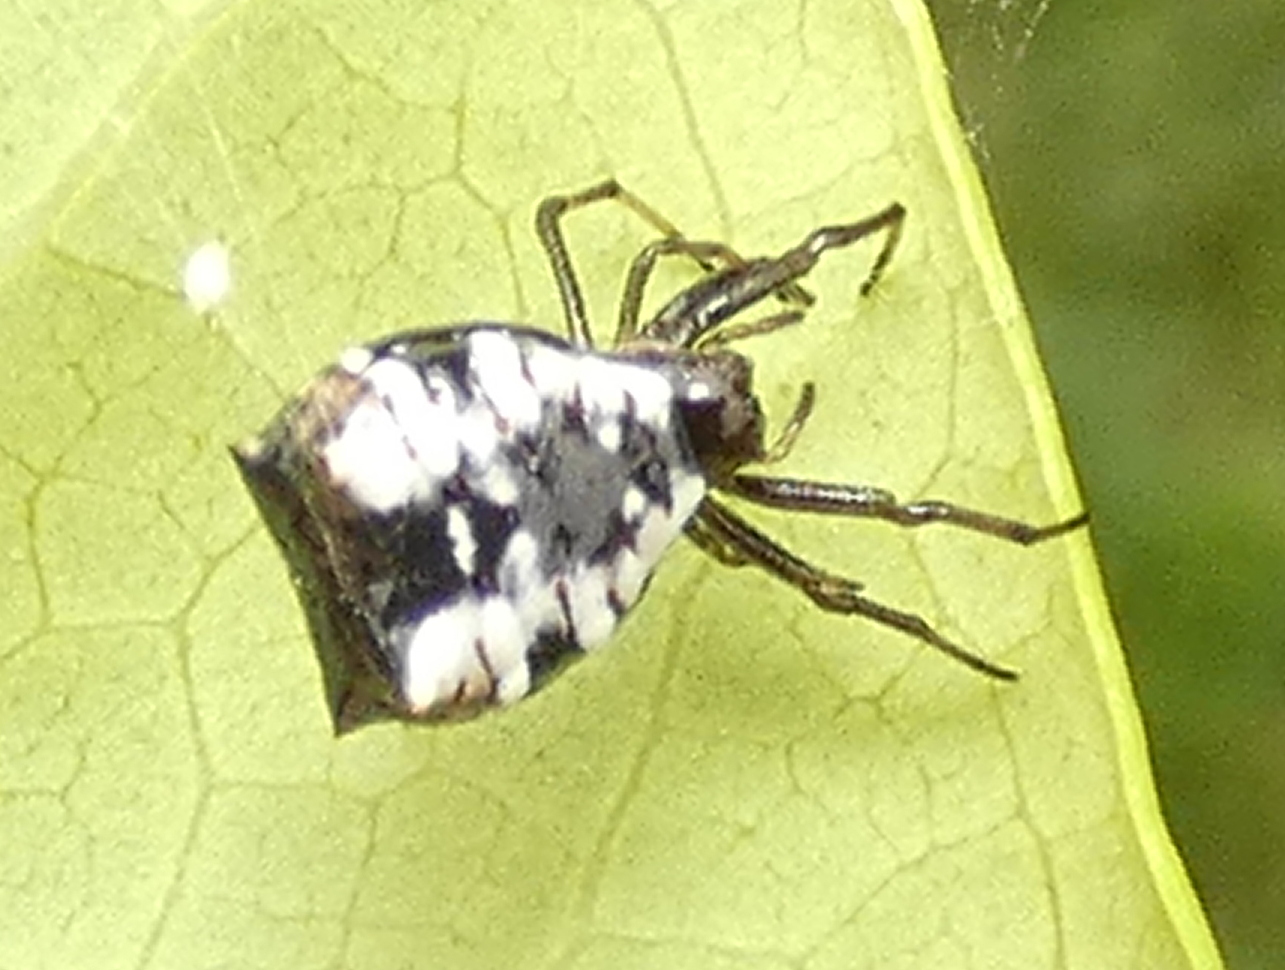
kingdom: Animalia
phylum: Arthropoda
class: Arachnida
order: Araneae
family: Araneidae
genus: Micrathena
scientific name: Micrathena patruelis
